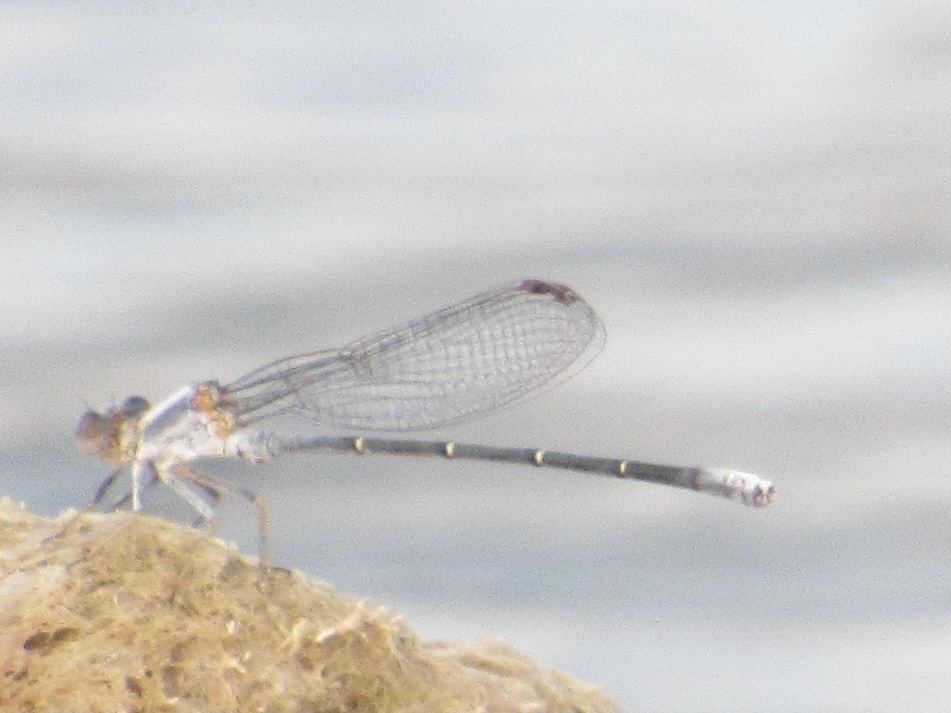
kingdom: Animalia
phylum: Arthropoda
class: Insecta
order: Odonata
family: Coenagrionidae
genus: Argia
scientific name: Argia moesta
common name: Powdered dancer
